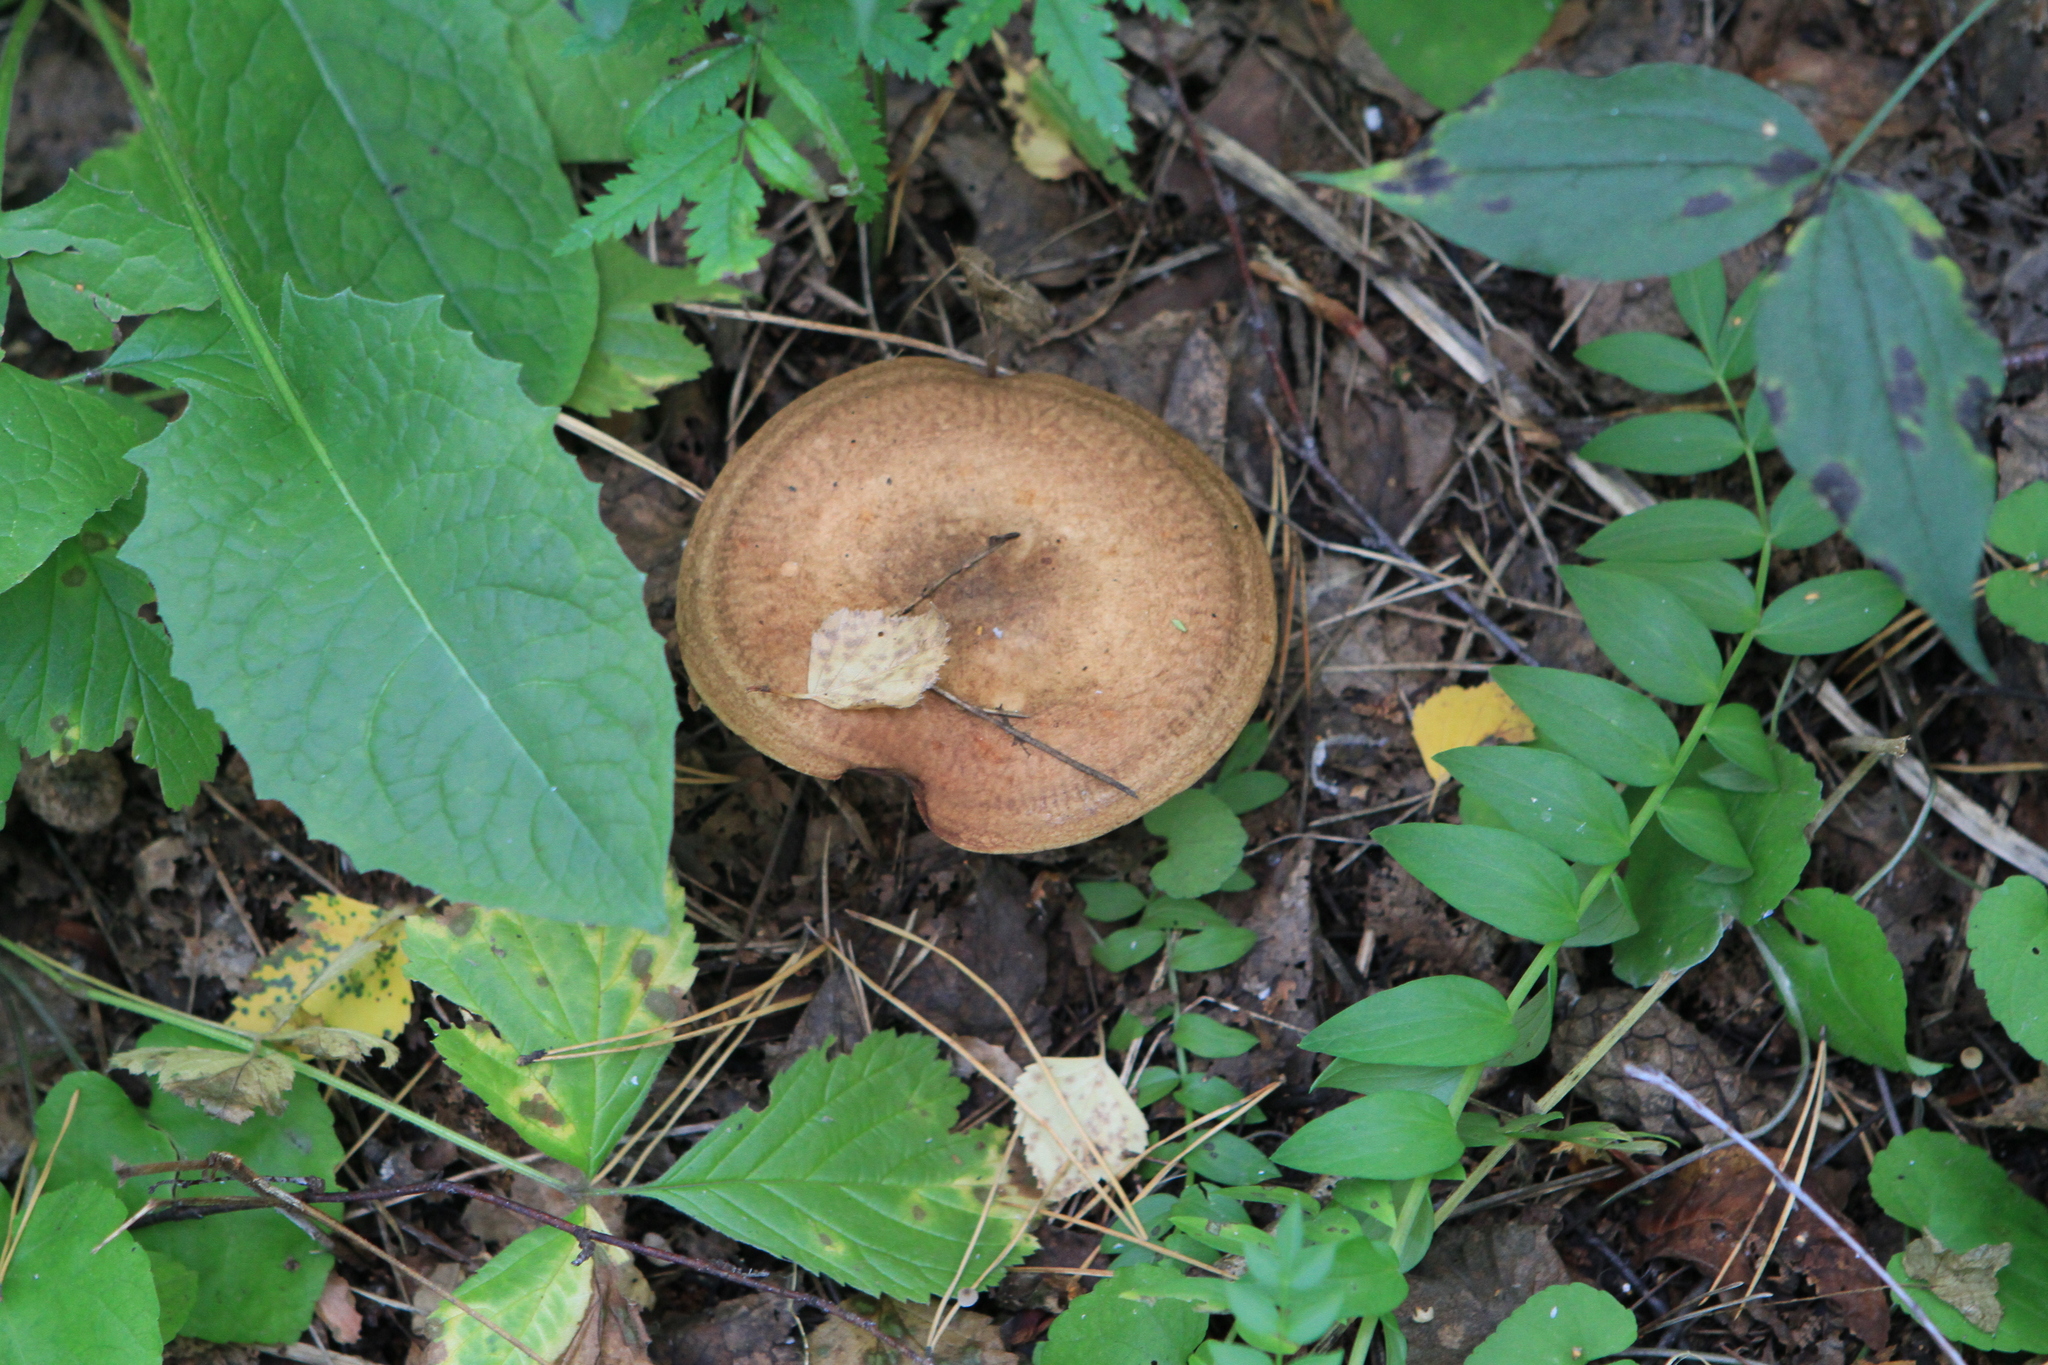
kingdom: Fungi
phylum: Basidiomycota
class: Agaricomycetes
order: Boletales
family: Paxillaceae
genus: Paxillus
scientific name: Paxillus involutus
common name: Brown roll rim
